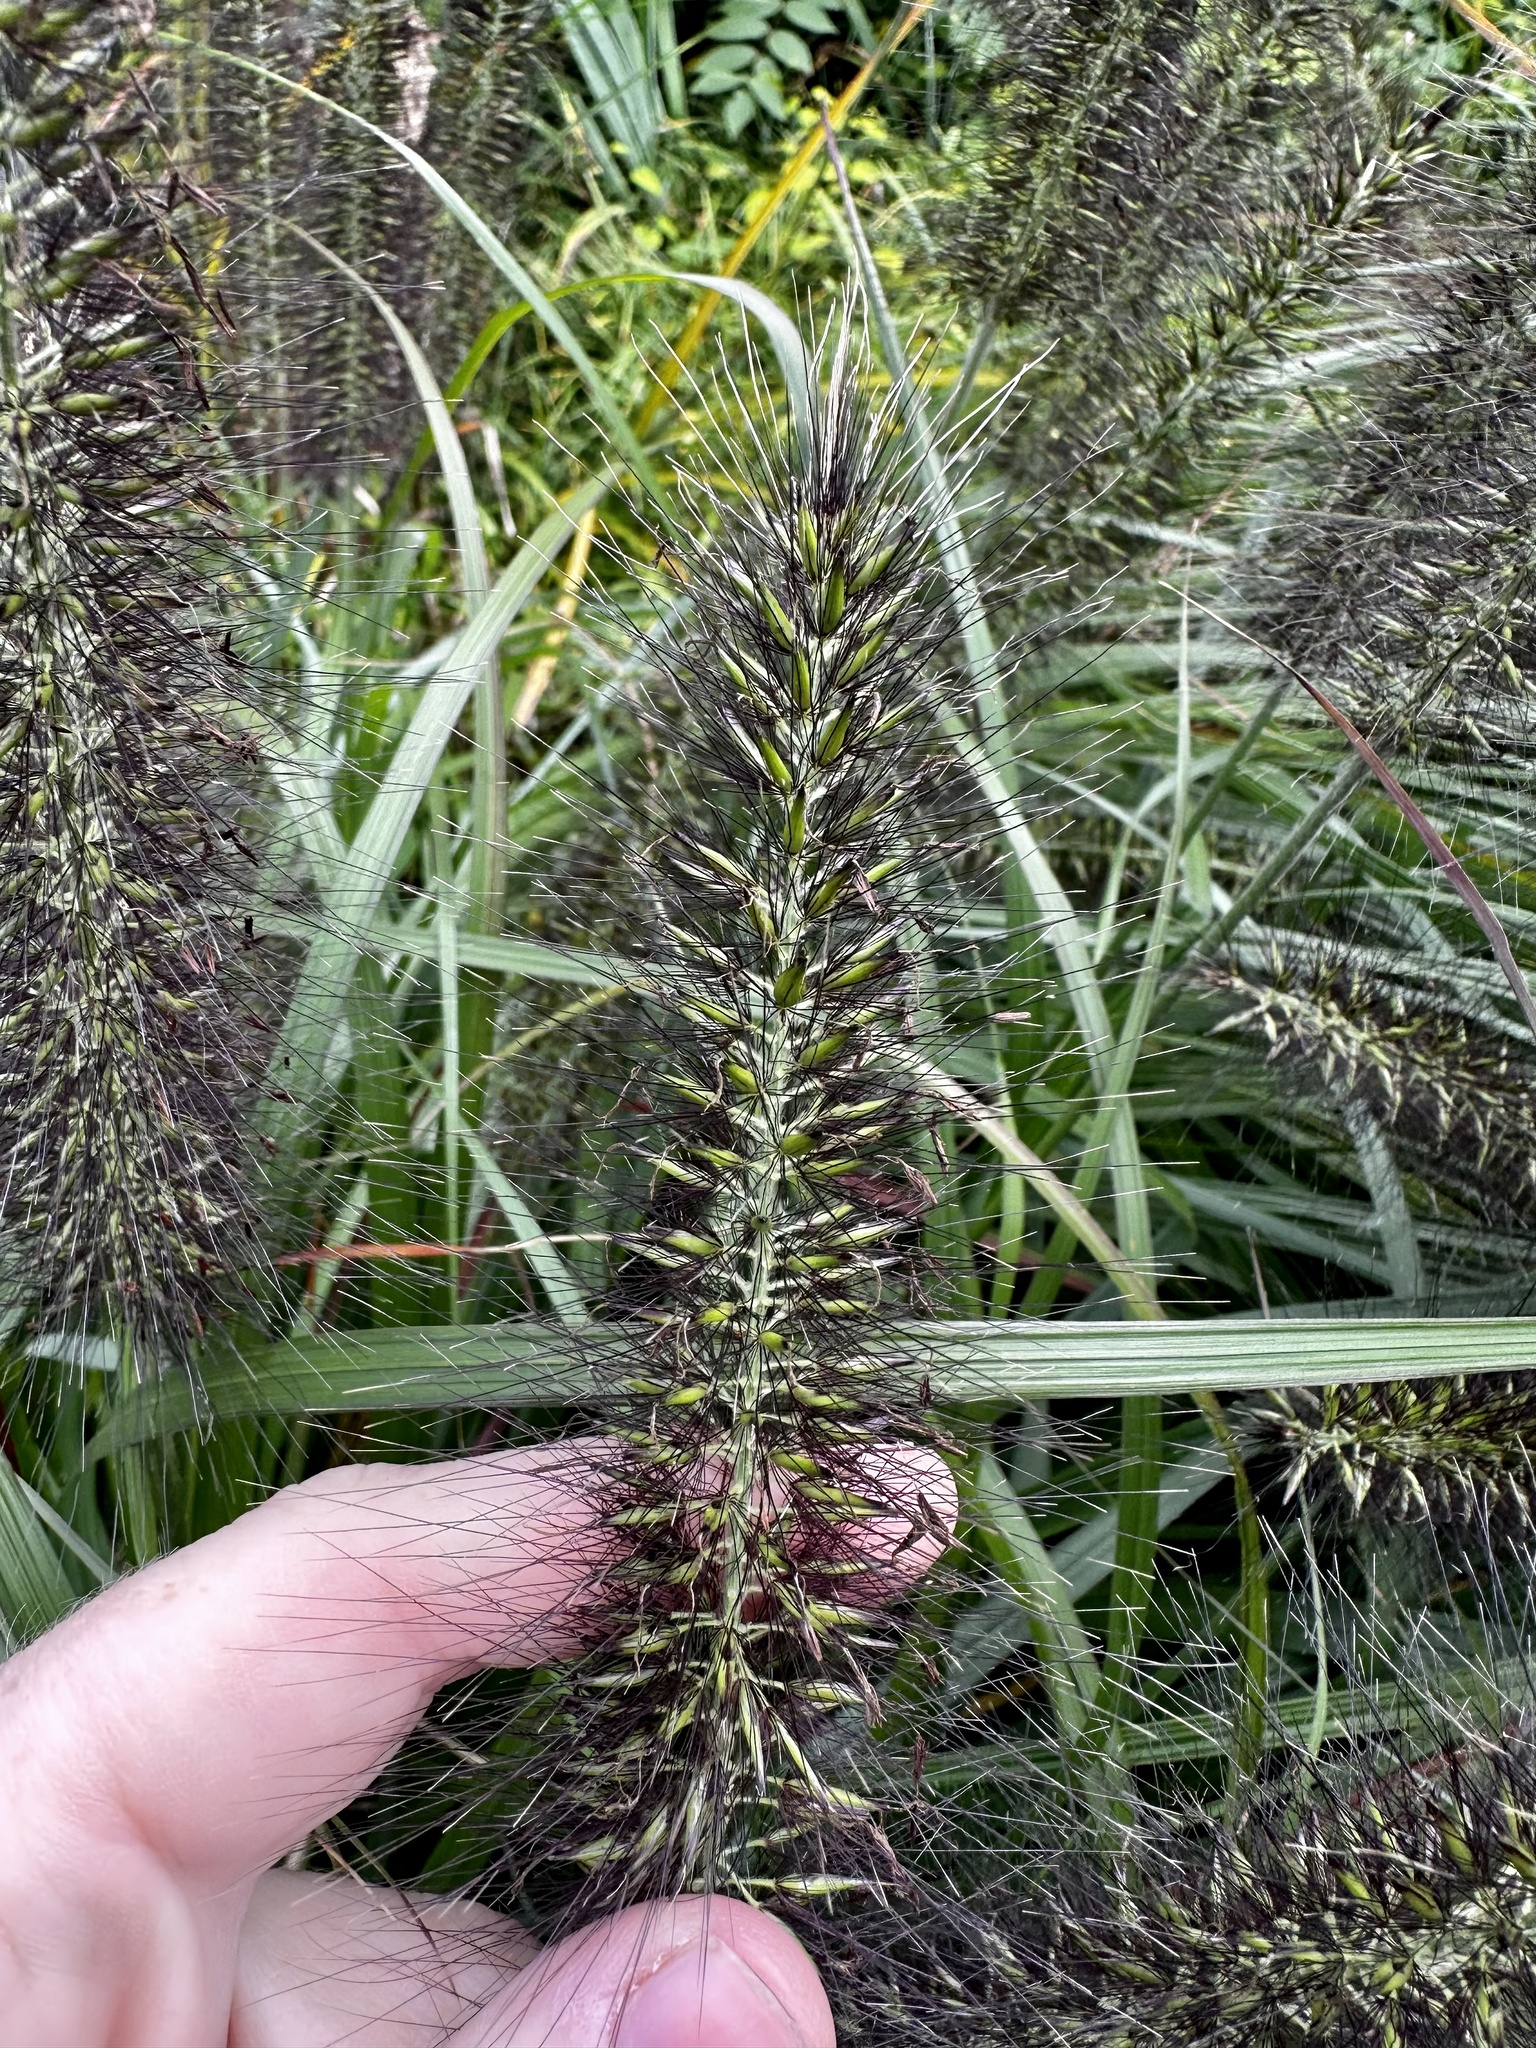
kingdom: Plantae
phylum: Tracheophyta
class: Liliopsida
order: Poales
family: Poaceae
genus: Cenchrus
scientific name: Cenchrus alopecuroides
